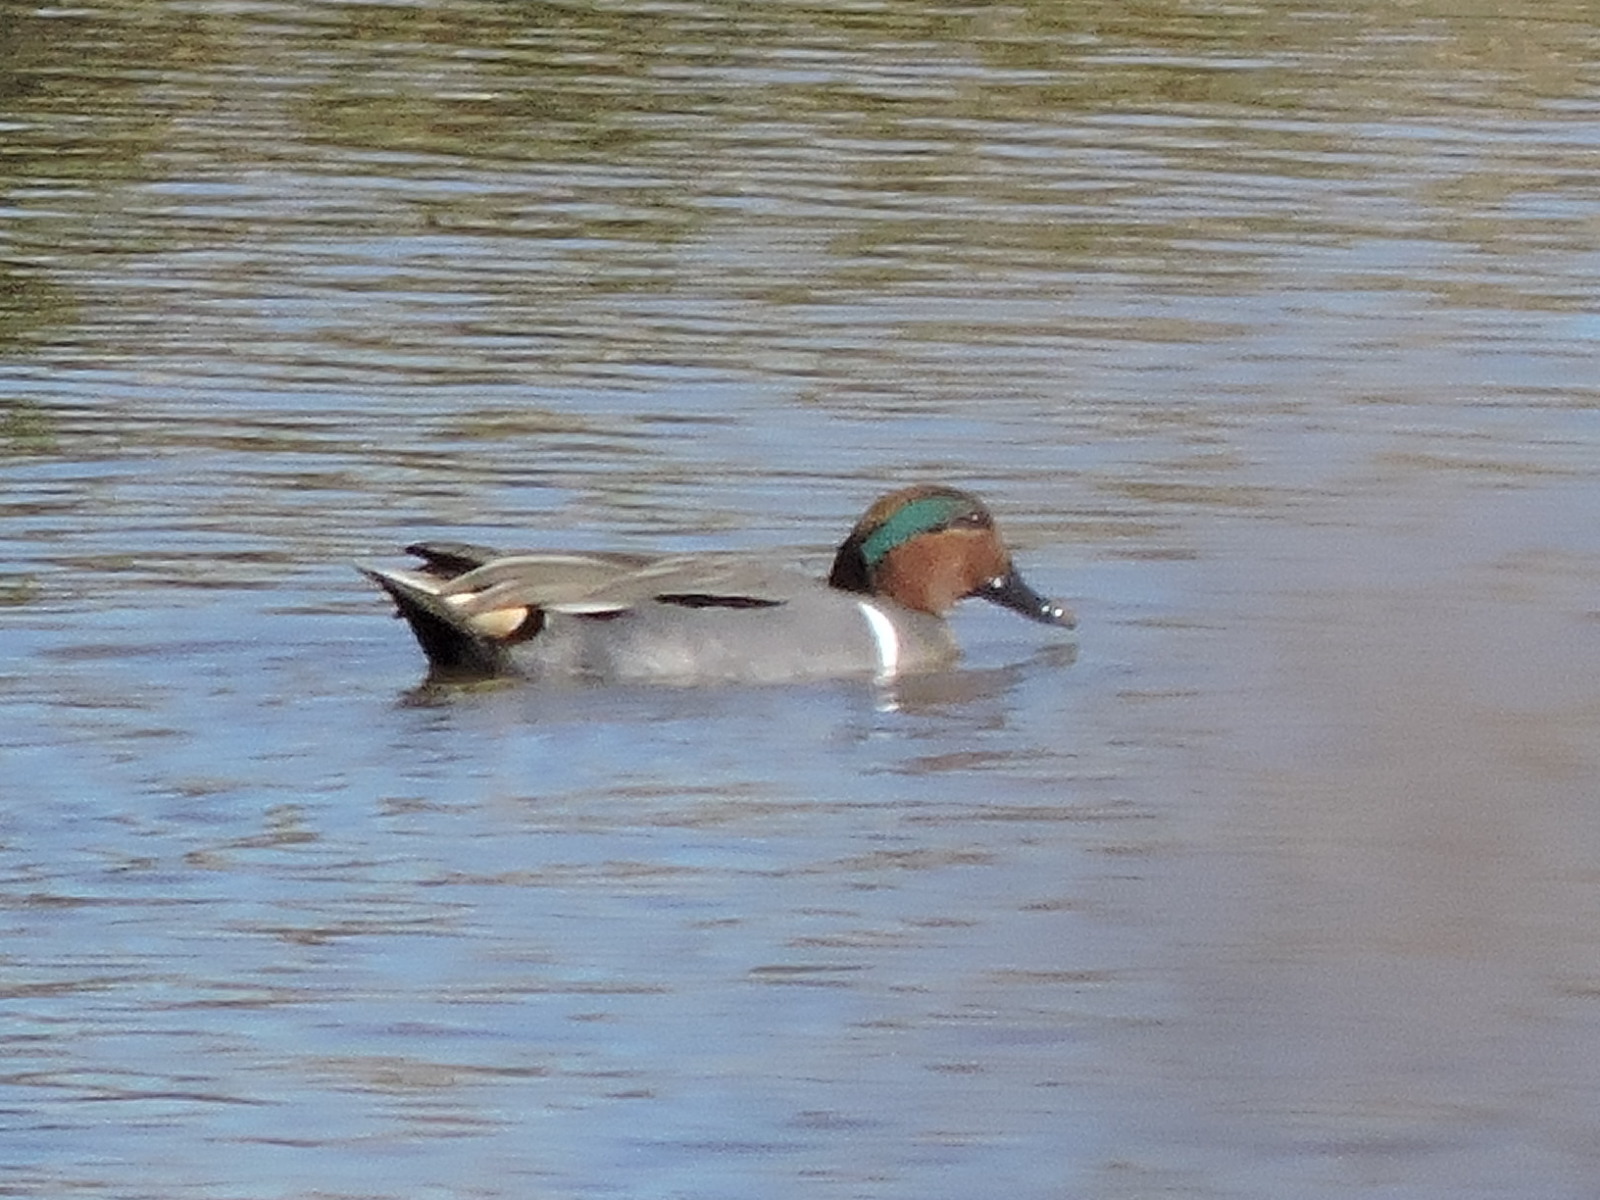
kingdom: Animalia
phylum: Chordata
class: Aves
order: Anseriformes
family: Anatidae
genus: Anas
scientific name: Anas crecca
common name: Eurasian teal
